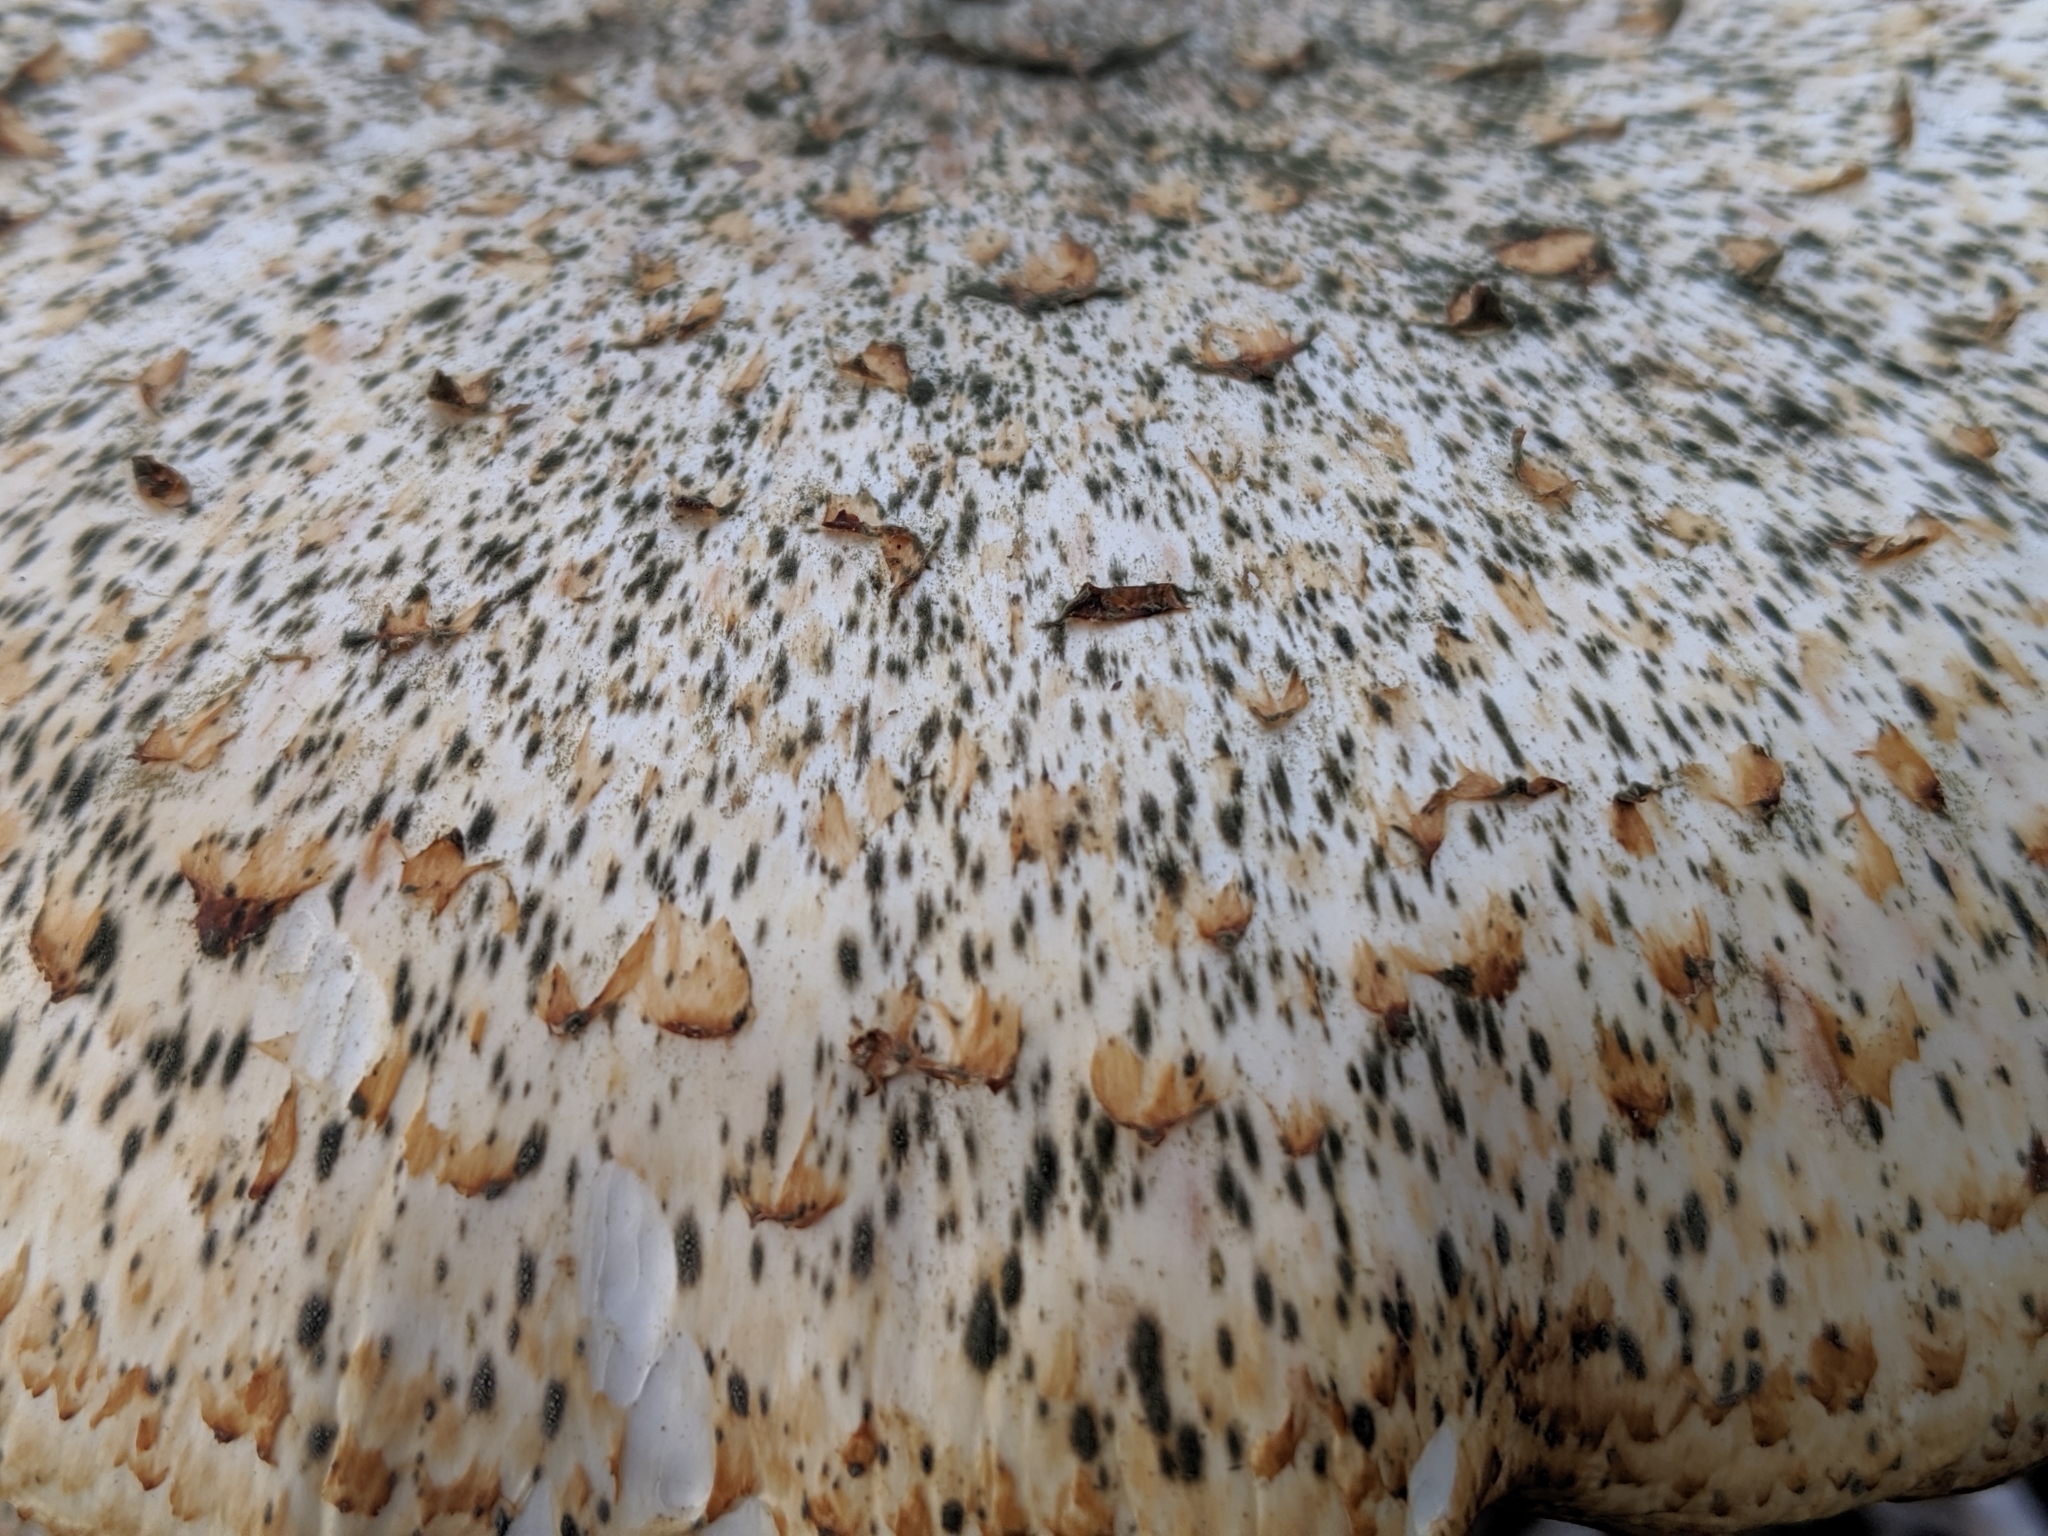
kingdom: Fungi
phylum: Basidiomycota
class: Agaricomycetes
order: Polyporales
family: Polyporaceae
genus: Cerioporus
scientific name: Cerioporus squamosus
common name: Dryad's saddle
